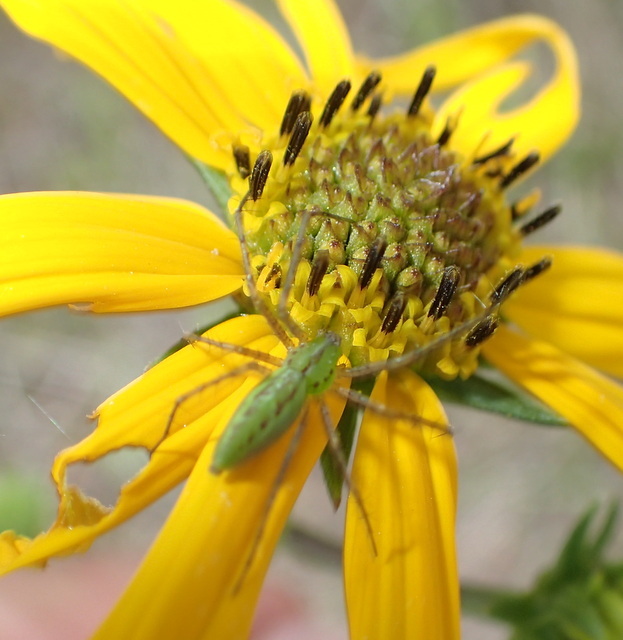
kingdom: Animalia
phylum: Arthropoda
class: Arachnida
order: Araneae
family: Oxyopidae
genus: Peucetia
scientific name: Peucetia viridans
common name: Lynx spiders
